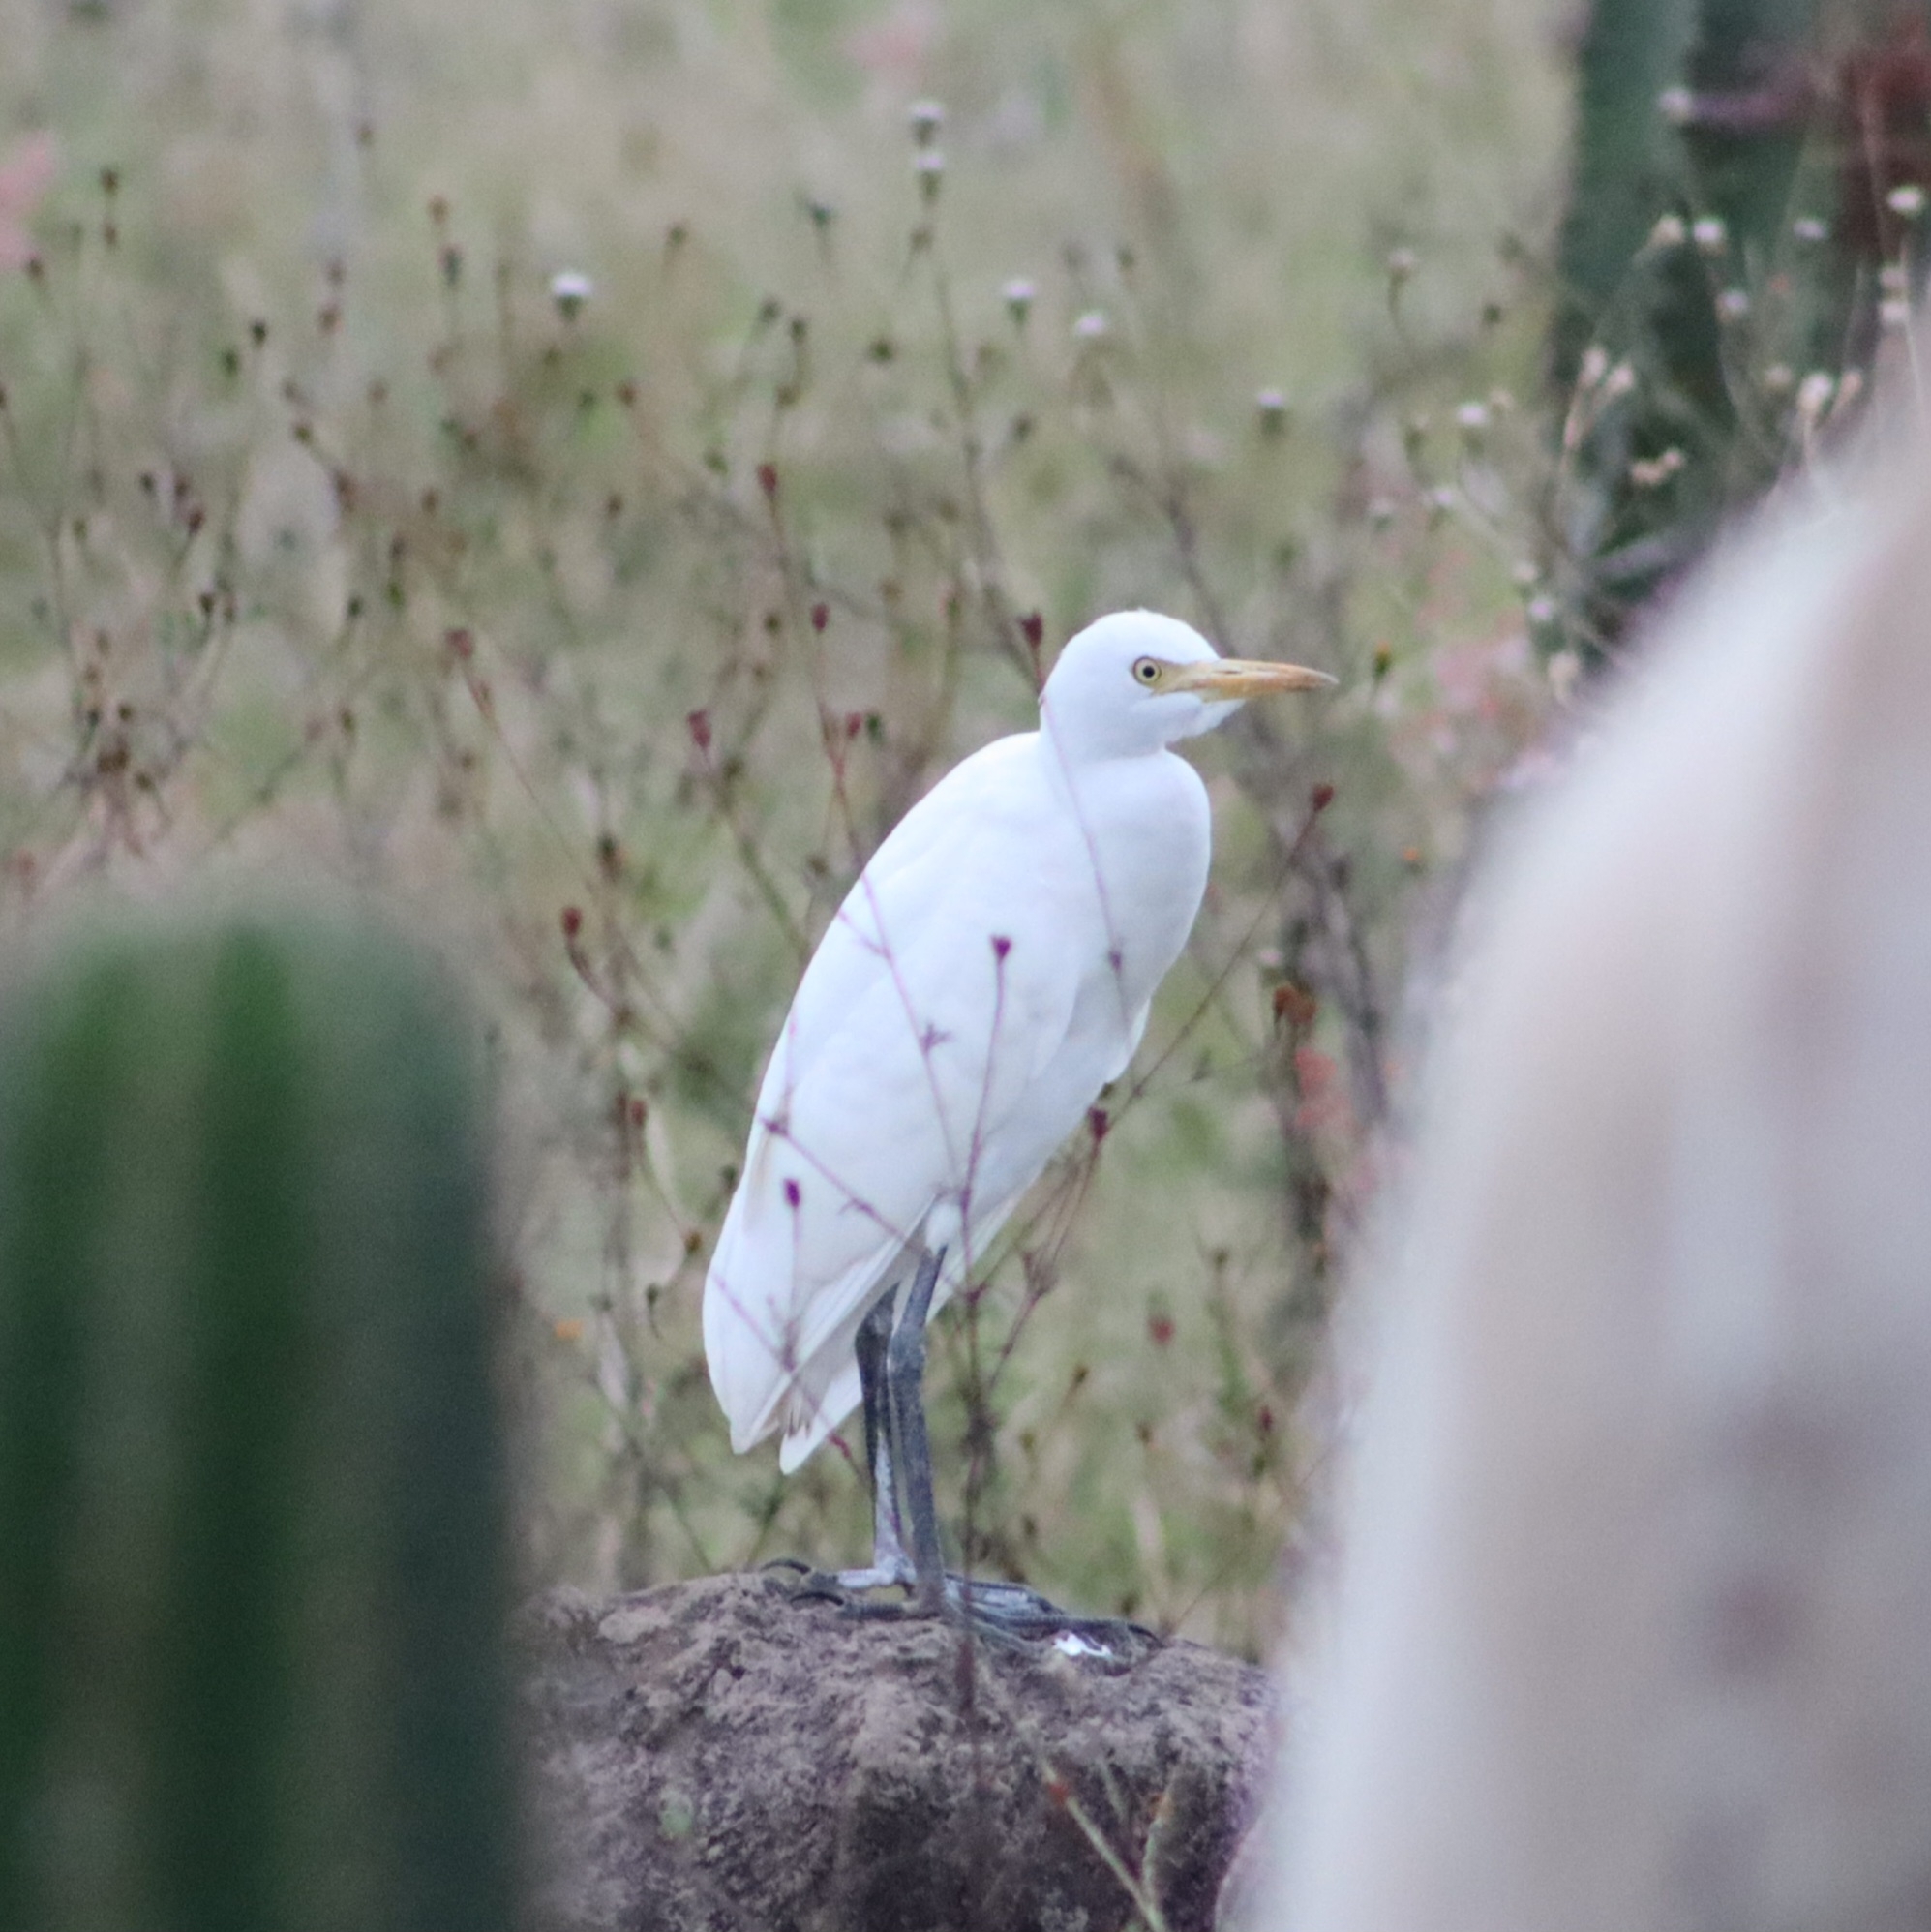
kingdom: Animalia
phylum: Chordata
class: Aves
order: Pelecaniformes
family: Ardeidae
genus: Bubulcus
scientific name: Bubulcus ibis
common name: Cattle egret
